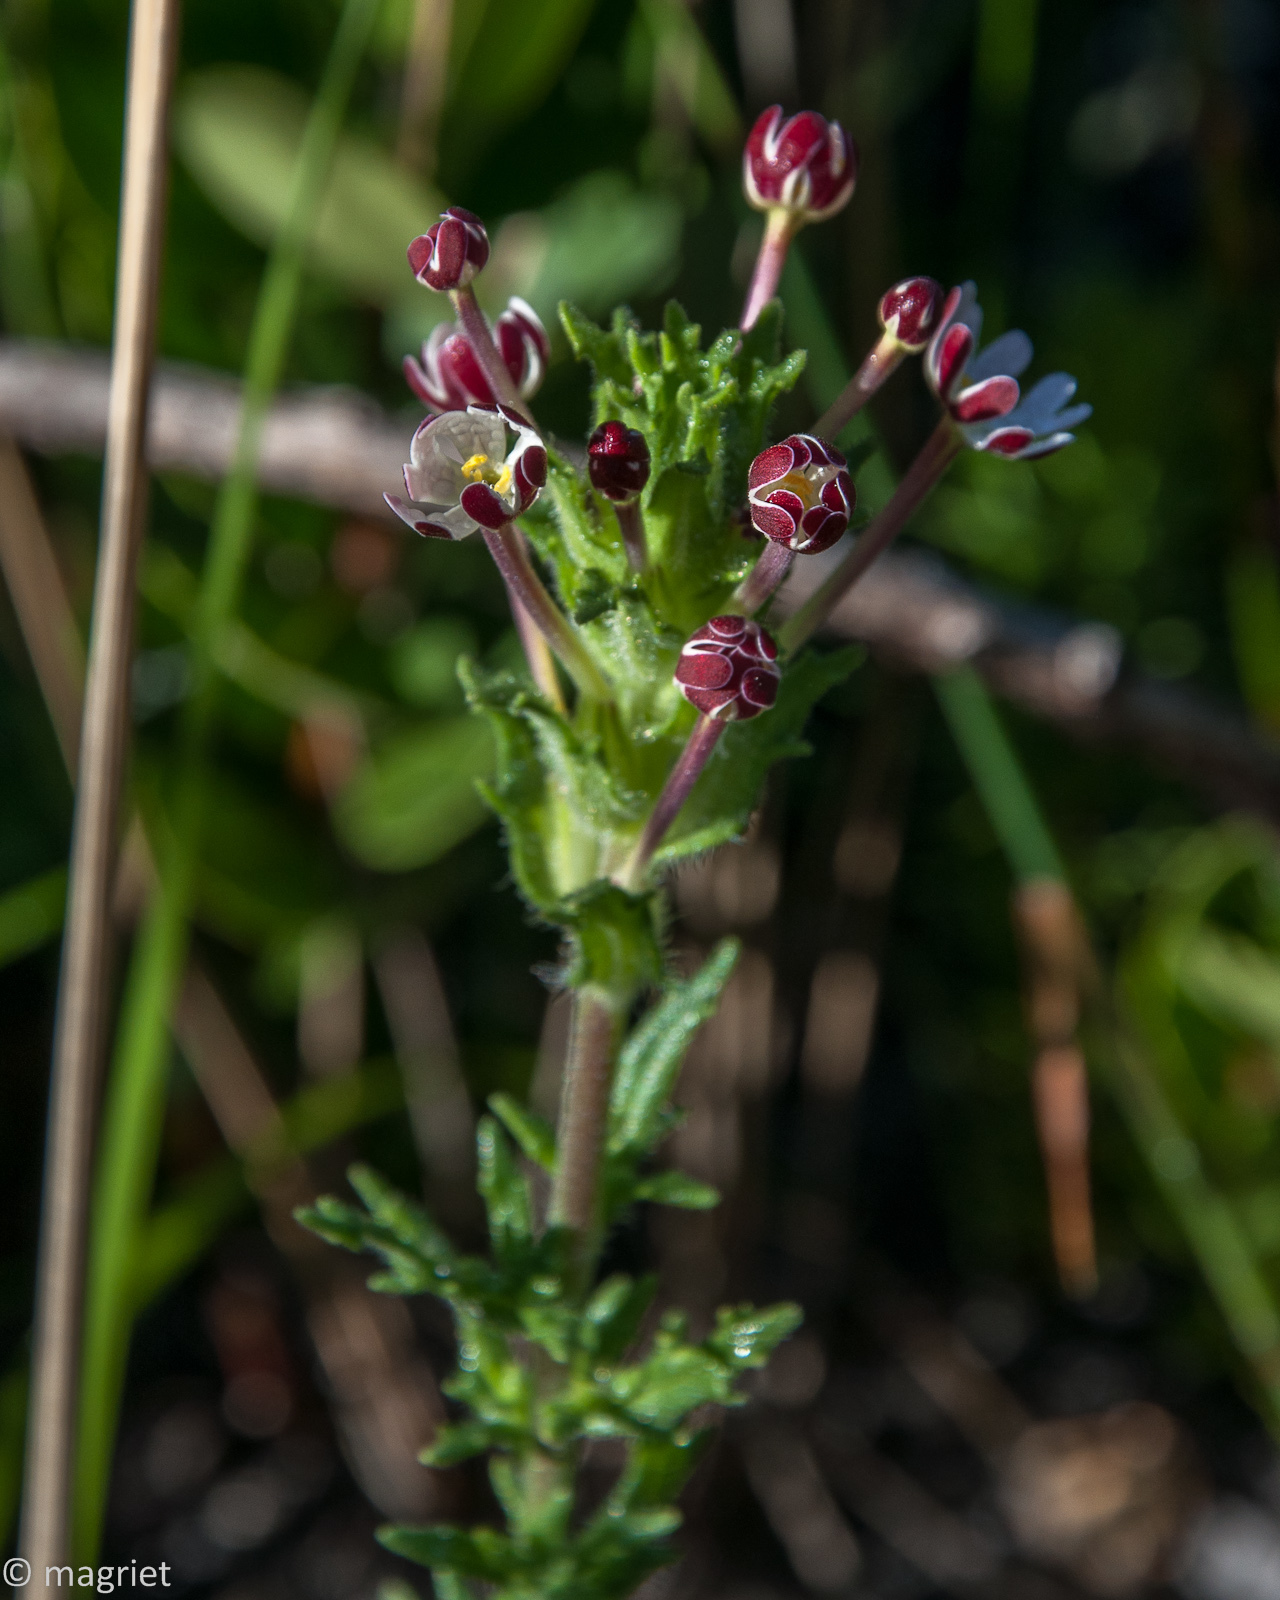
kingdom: Plantae
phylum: Tracheophyta
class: Magnoliopsida
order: Lamiales
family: Scrophulariaceae
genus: Zaluzianskya
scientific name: Zaluzianskya capensis
